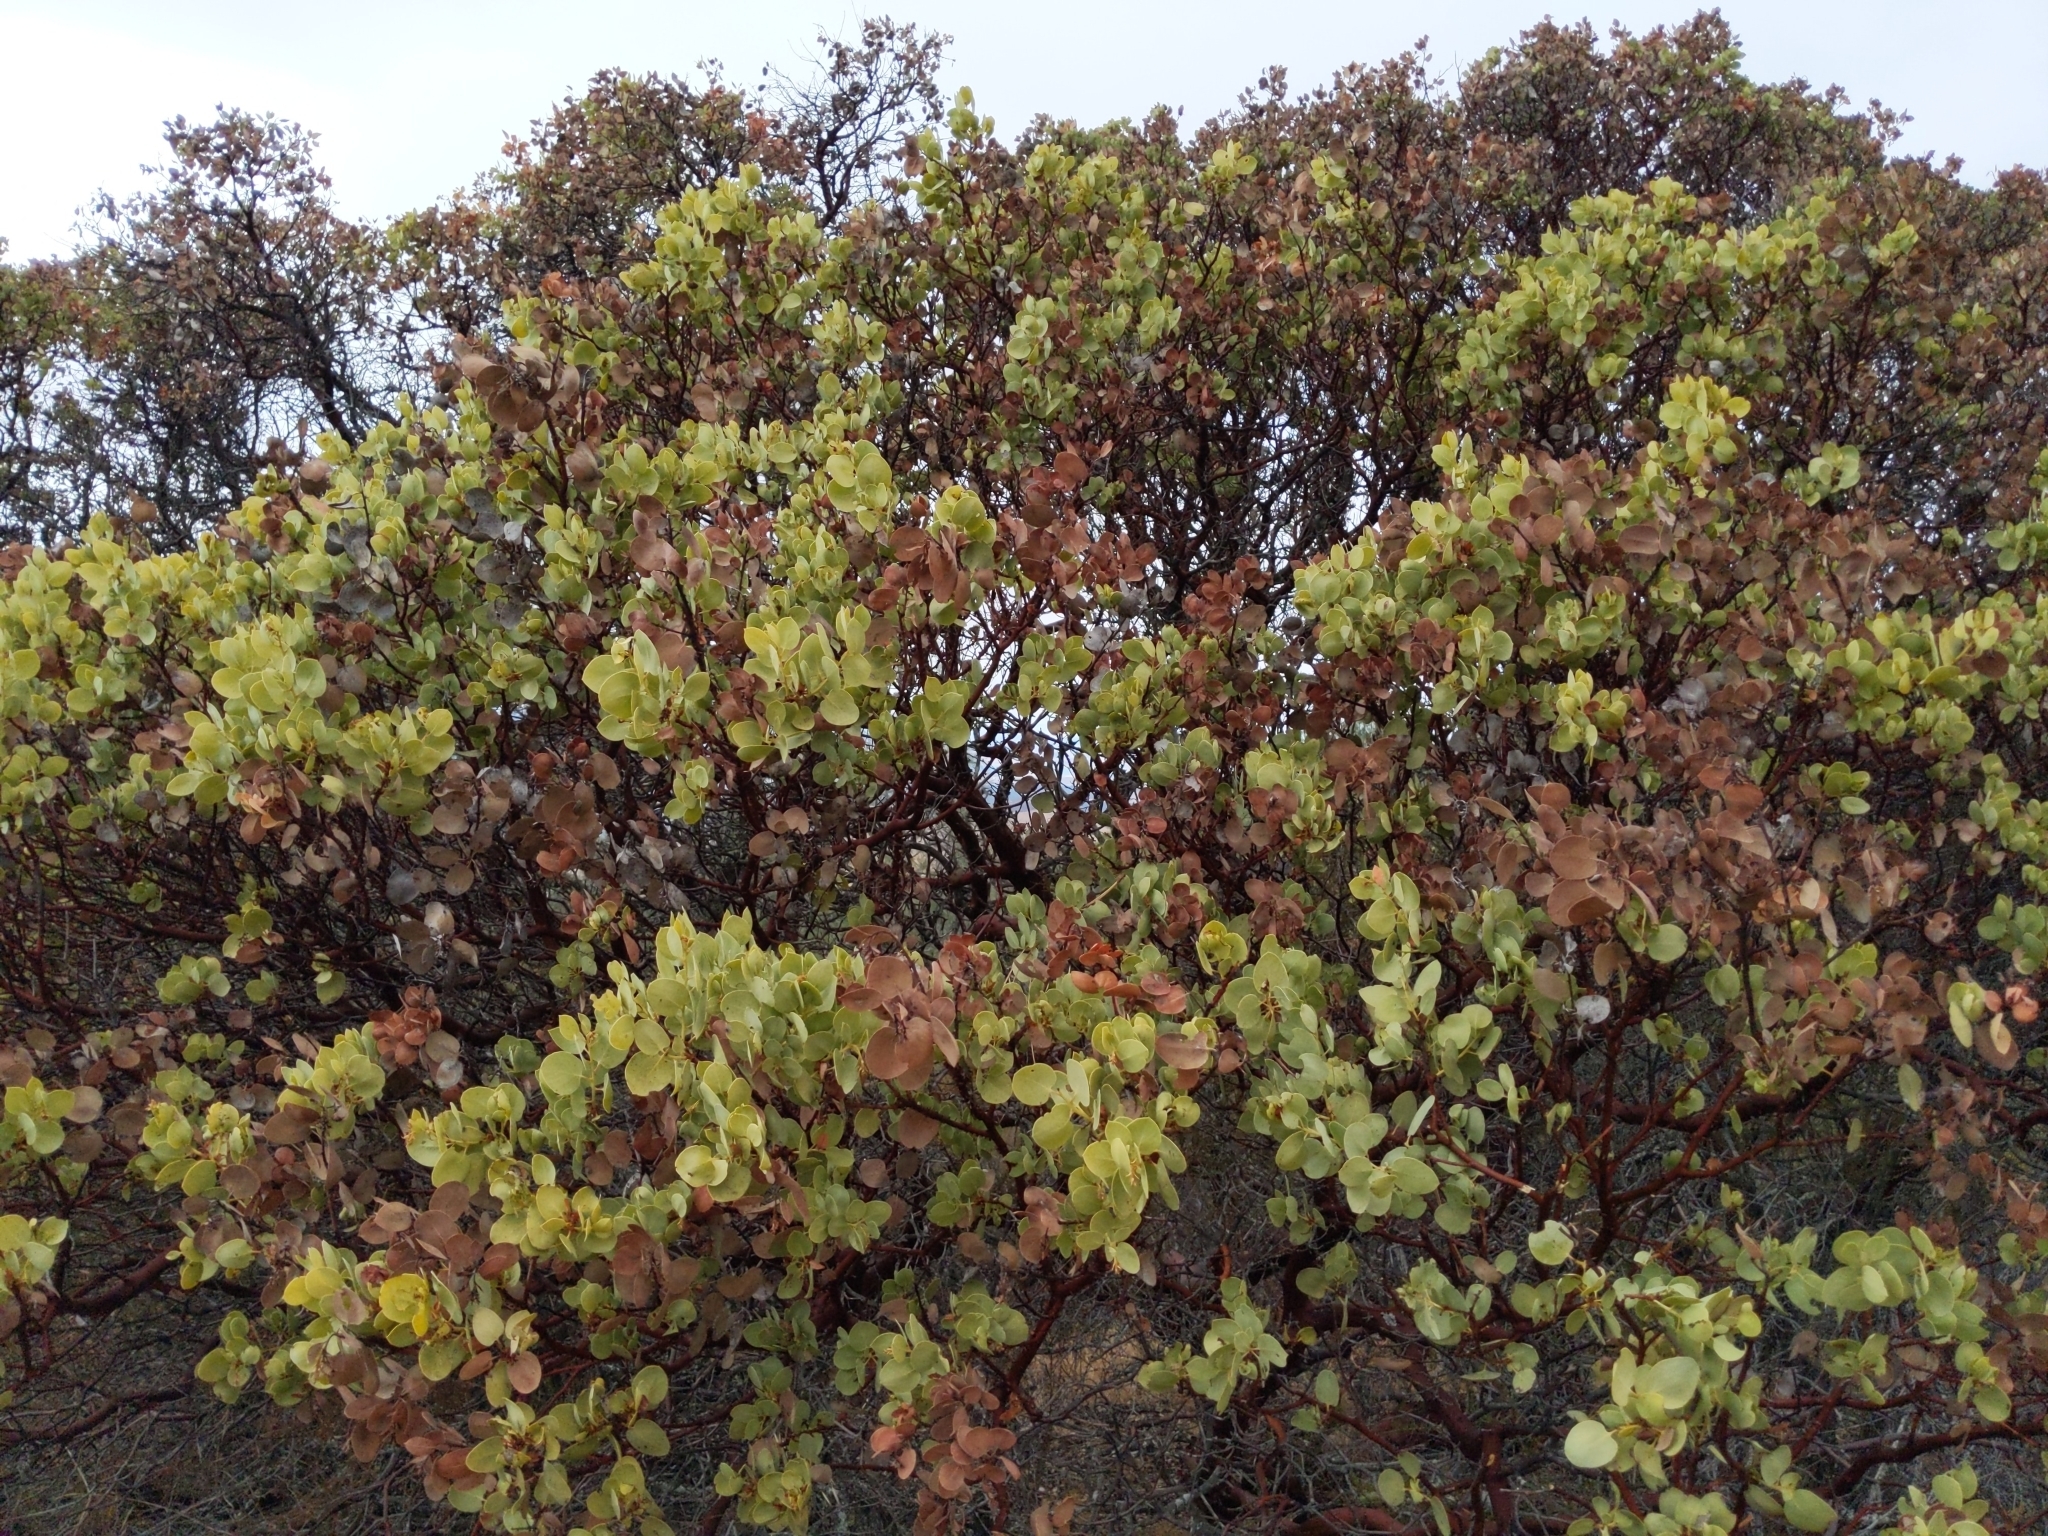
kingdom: Plantae
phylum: Tracheophyta
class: Magnoliopsida
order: Ericales
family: Ericaceae
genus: Arctostaphylos
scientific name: Arctostaphylos glauca
